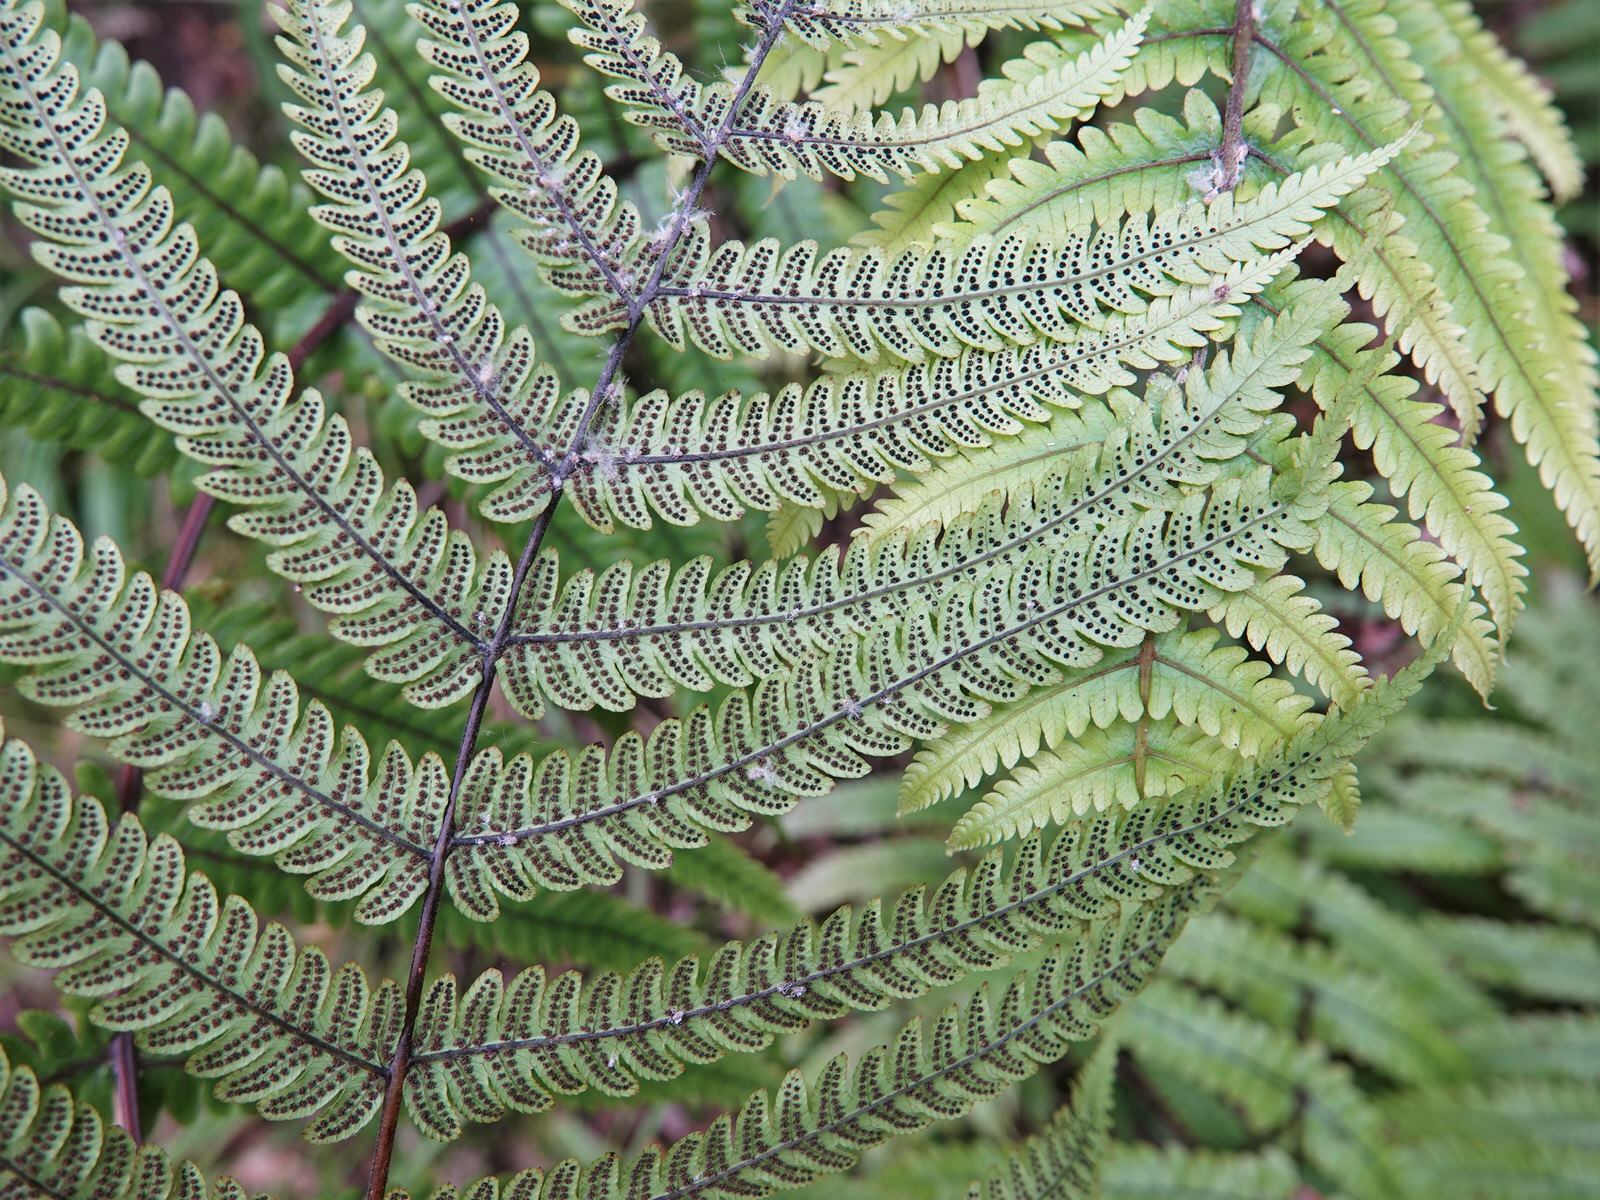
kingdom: Plantae
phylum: Tracheophyta
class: Polypodiopsida
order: Polypodiales
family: Thelypteridaceae
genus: Pakau
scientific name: Pakau pennigera
